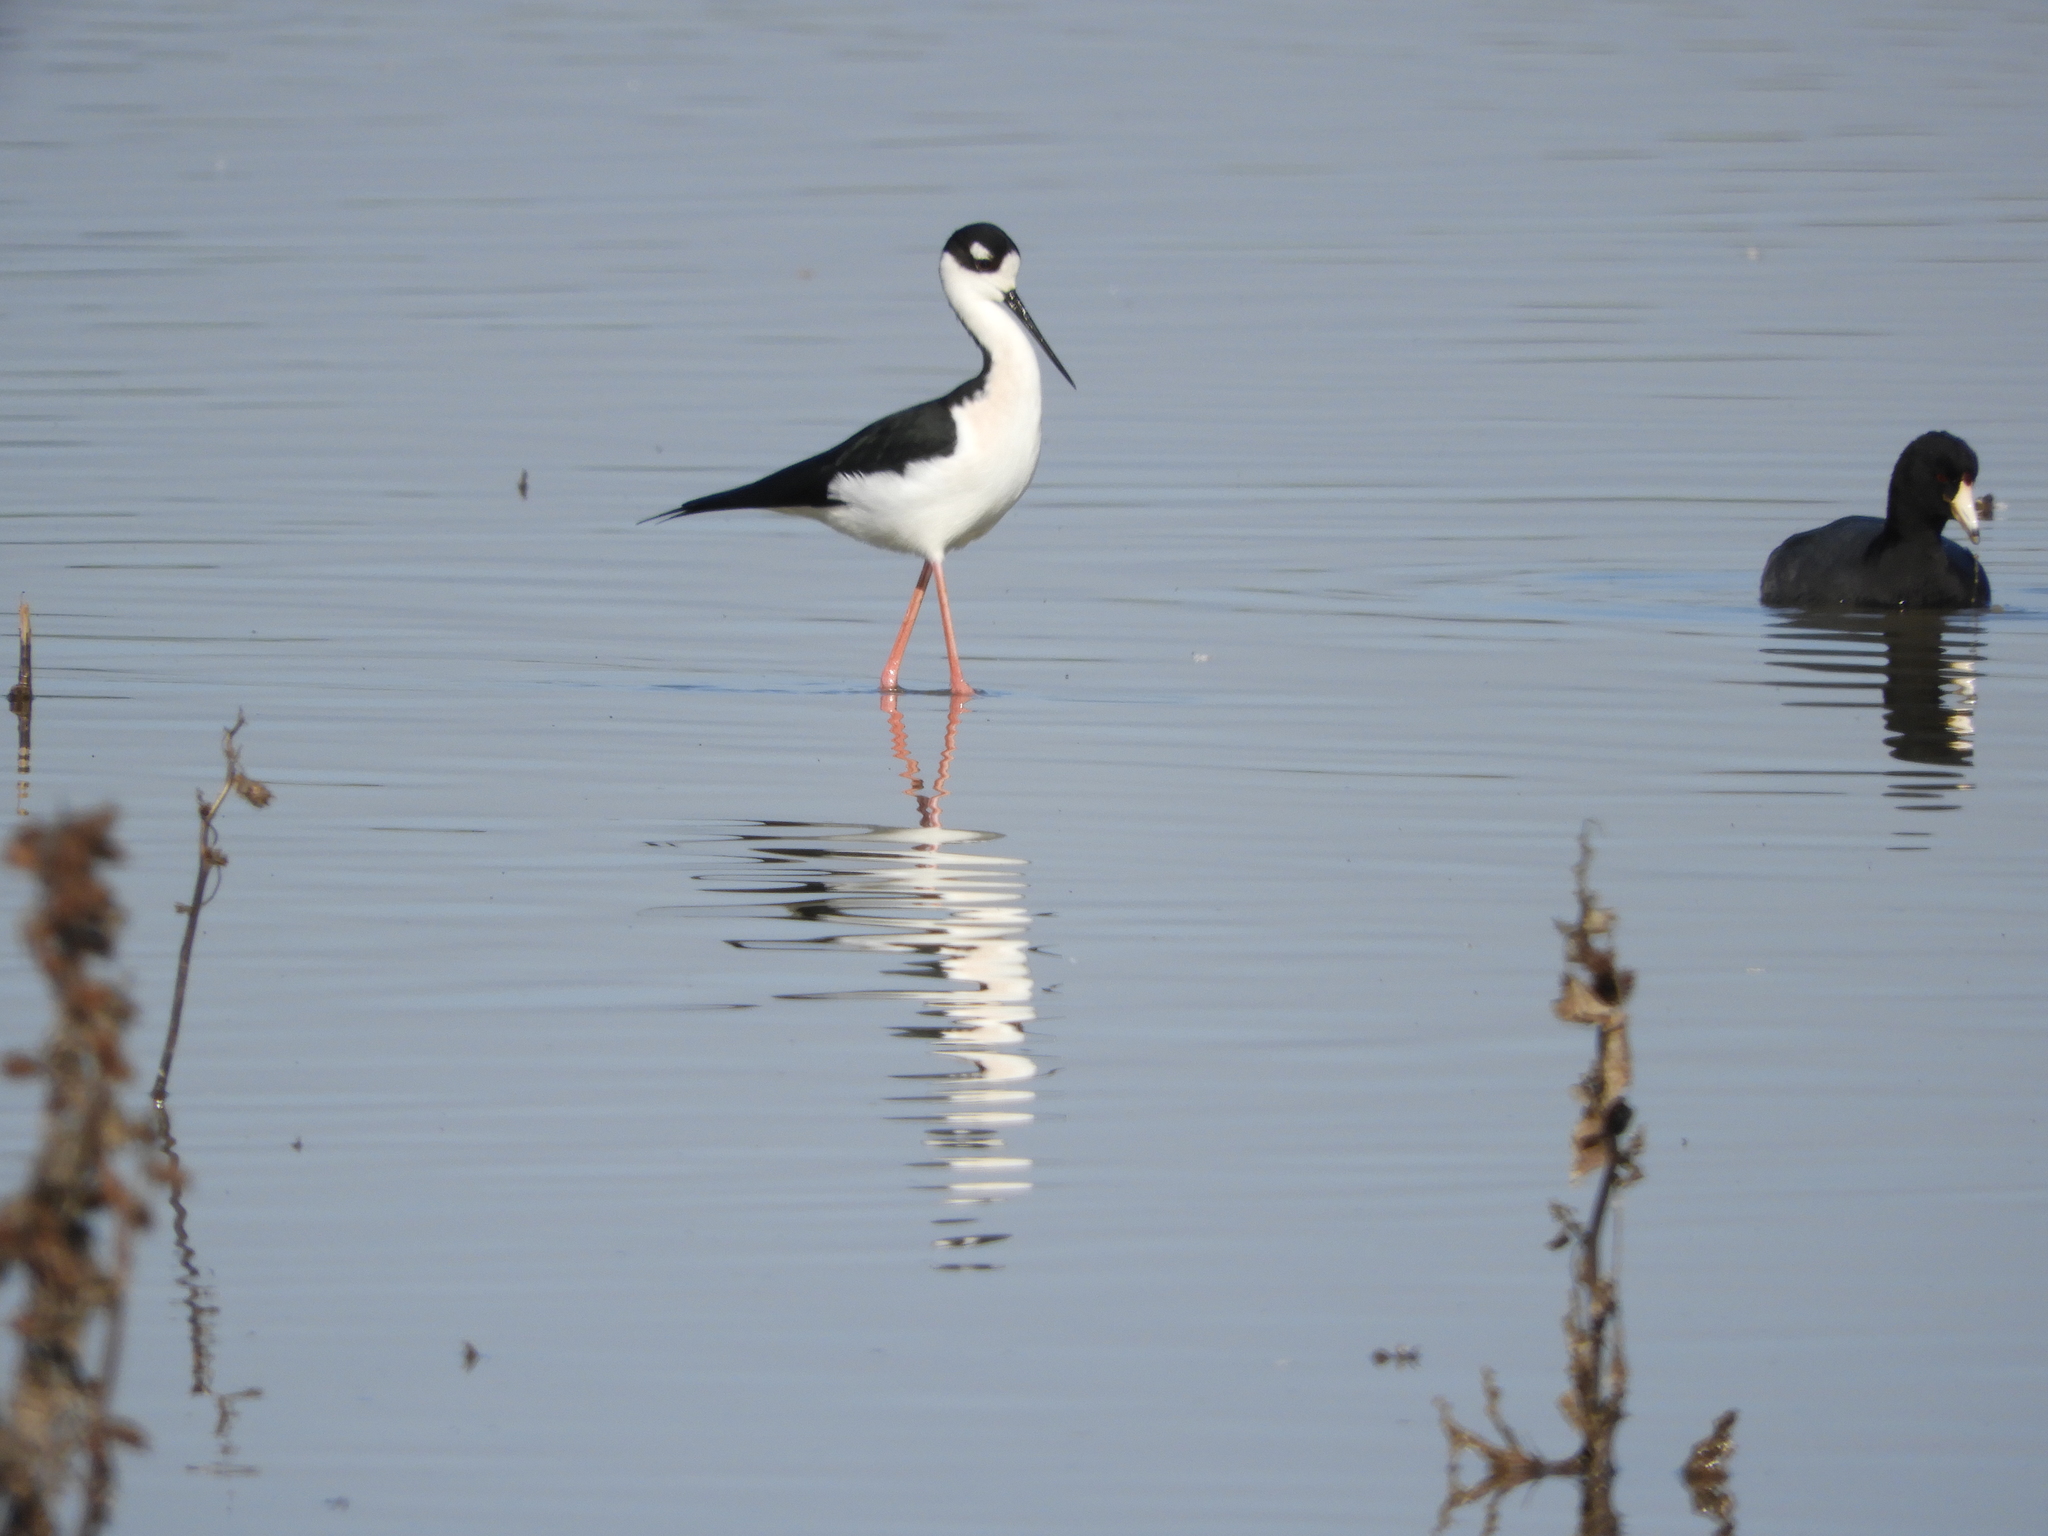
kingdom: Animalia
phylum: Chordata
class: Aves
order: Charadriiformes
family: Recurvirostridae
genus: Himantopus
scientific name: Himantopus mexicanus
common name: Black-necked stilt
